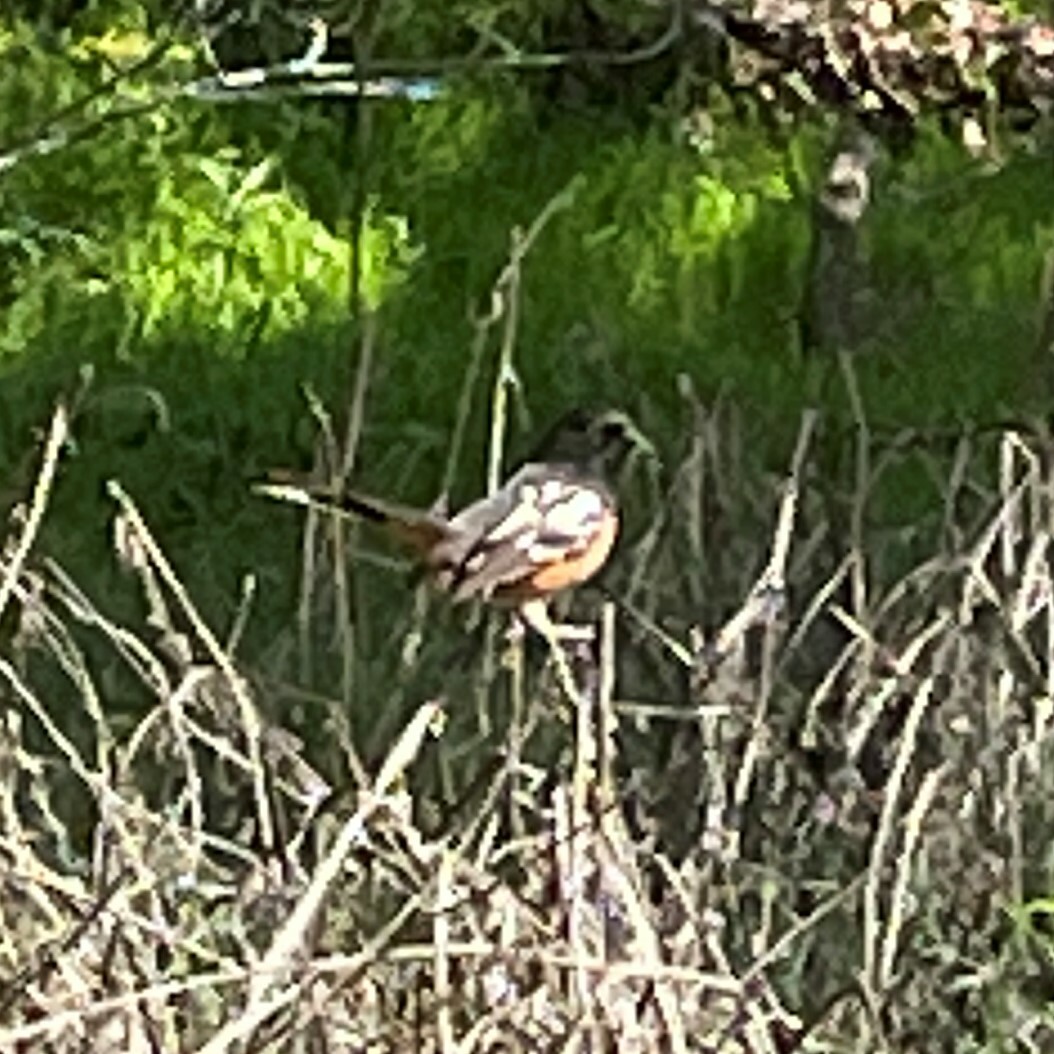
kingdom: Animalia
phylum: Chordata
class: Aves
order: Passeriformes
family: Passerellidae
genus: Pipilo
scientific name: Pipilo maculatus
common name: Spotted towhee
